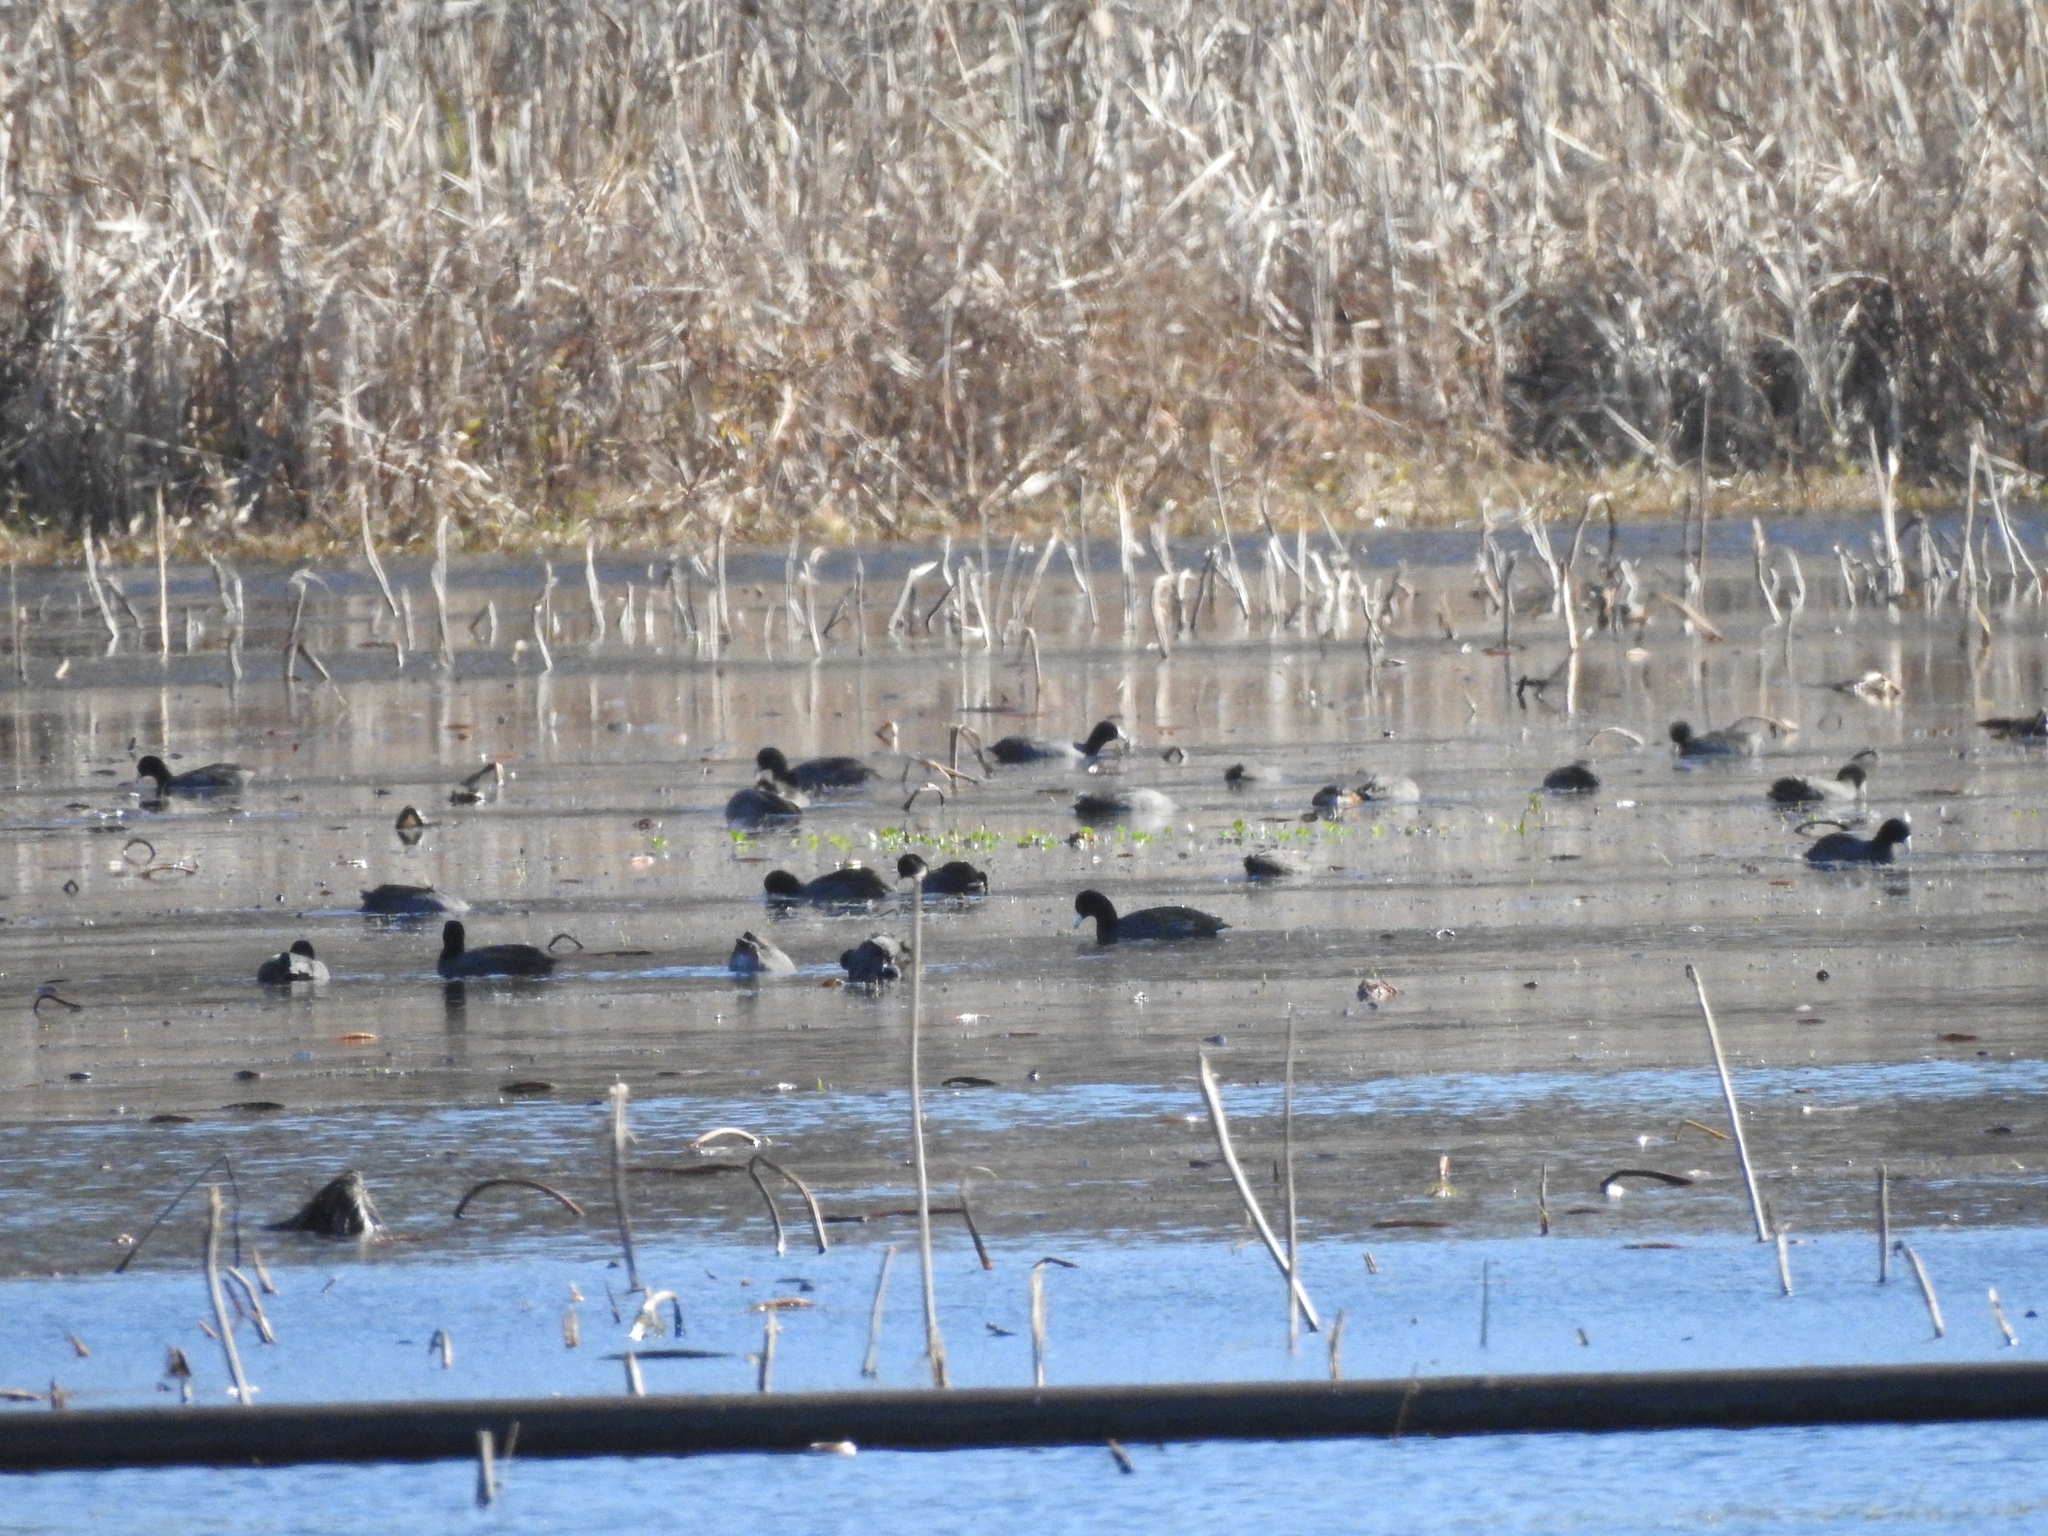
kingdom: Animalia
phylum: Chordata
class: Aves
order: Gruiformes
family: Rallidae
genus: Fulica
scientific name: Fulica americana
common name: American coot
